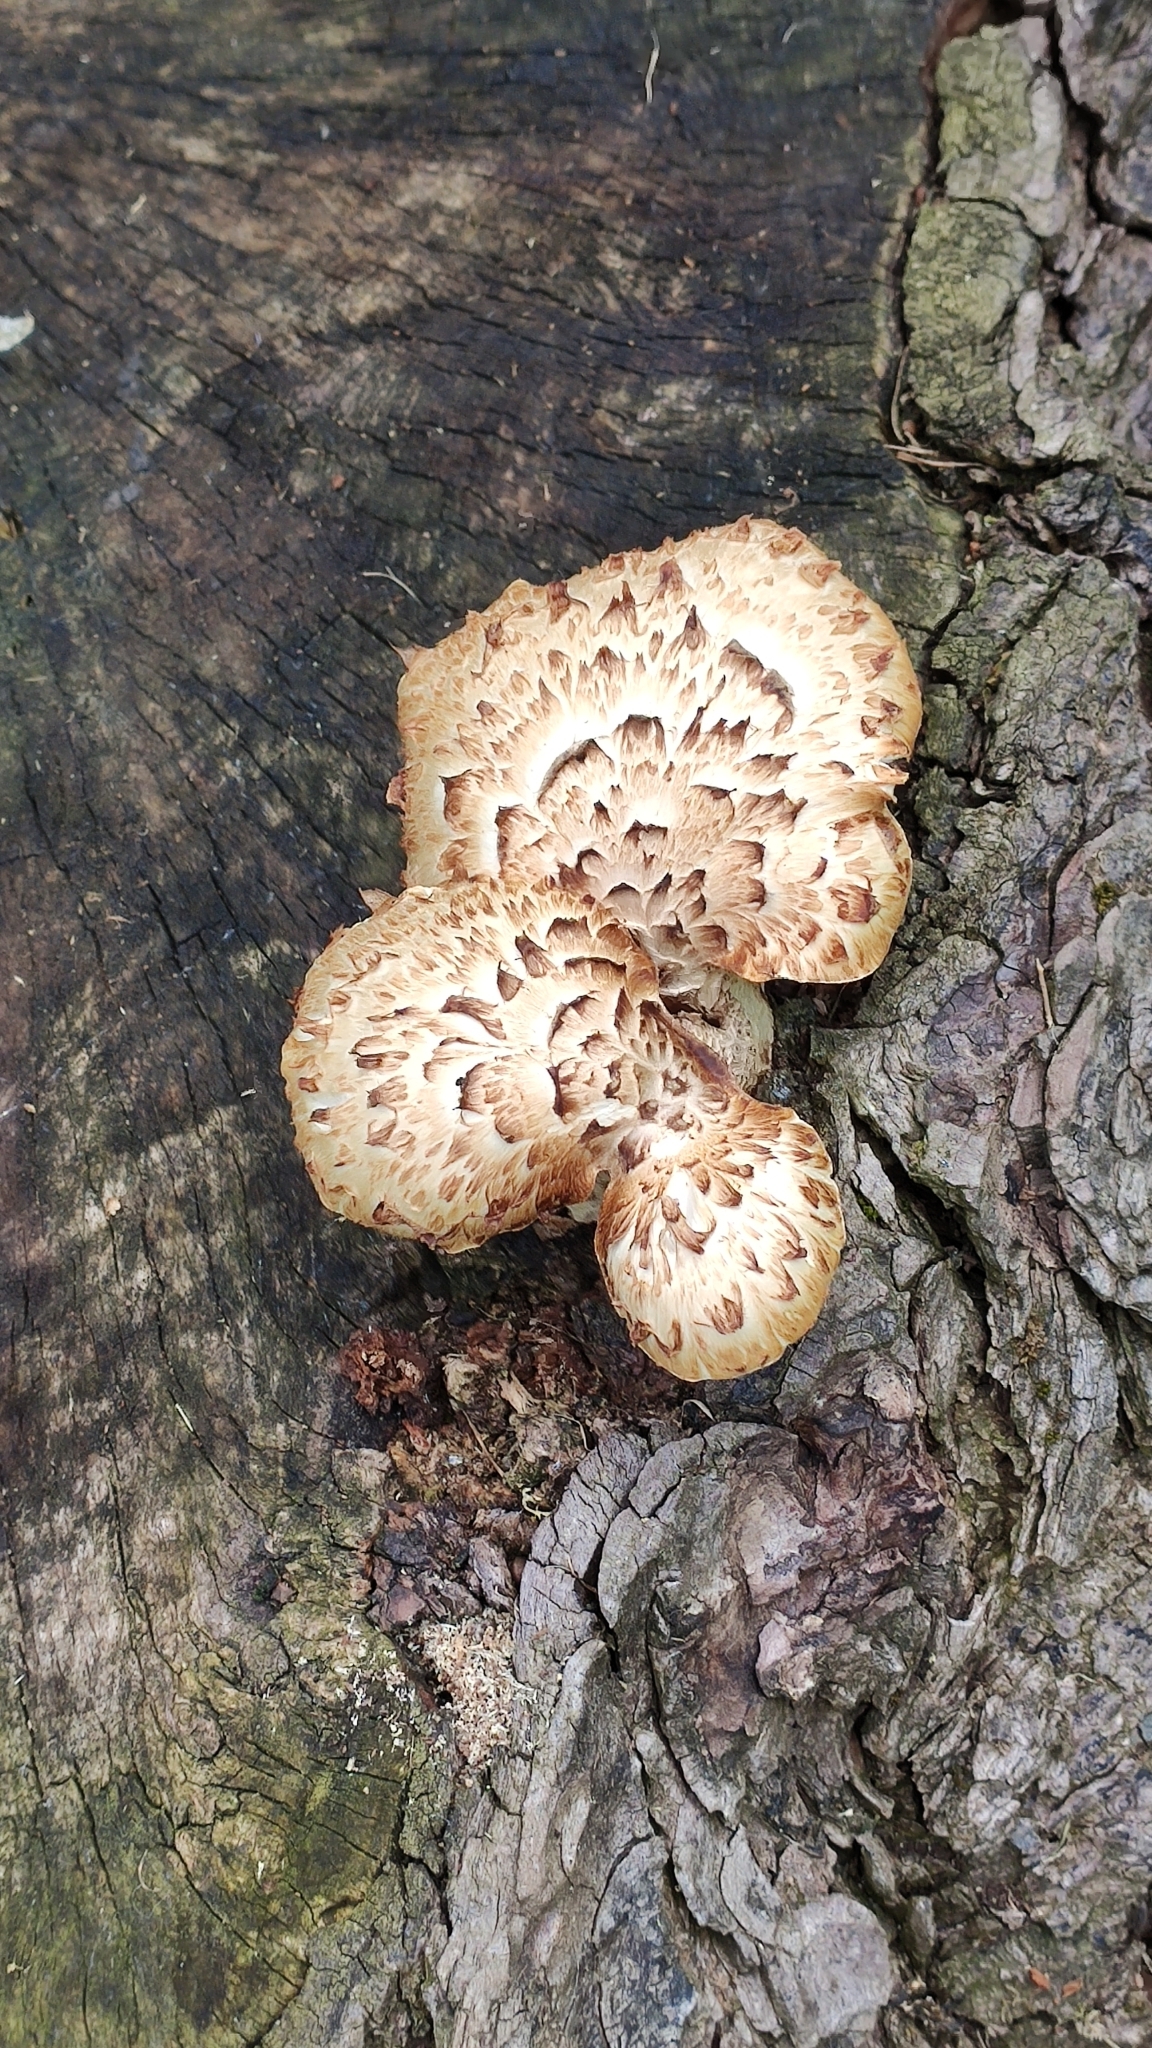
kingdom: Fungi
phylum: Basidiomycota
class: Agaricomycetes
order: Polyporales
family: Polyporaceae
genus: Cerioporus
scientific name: Cerioporus squamosus
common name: Dryad's saddle
